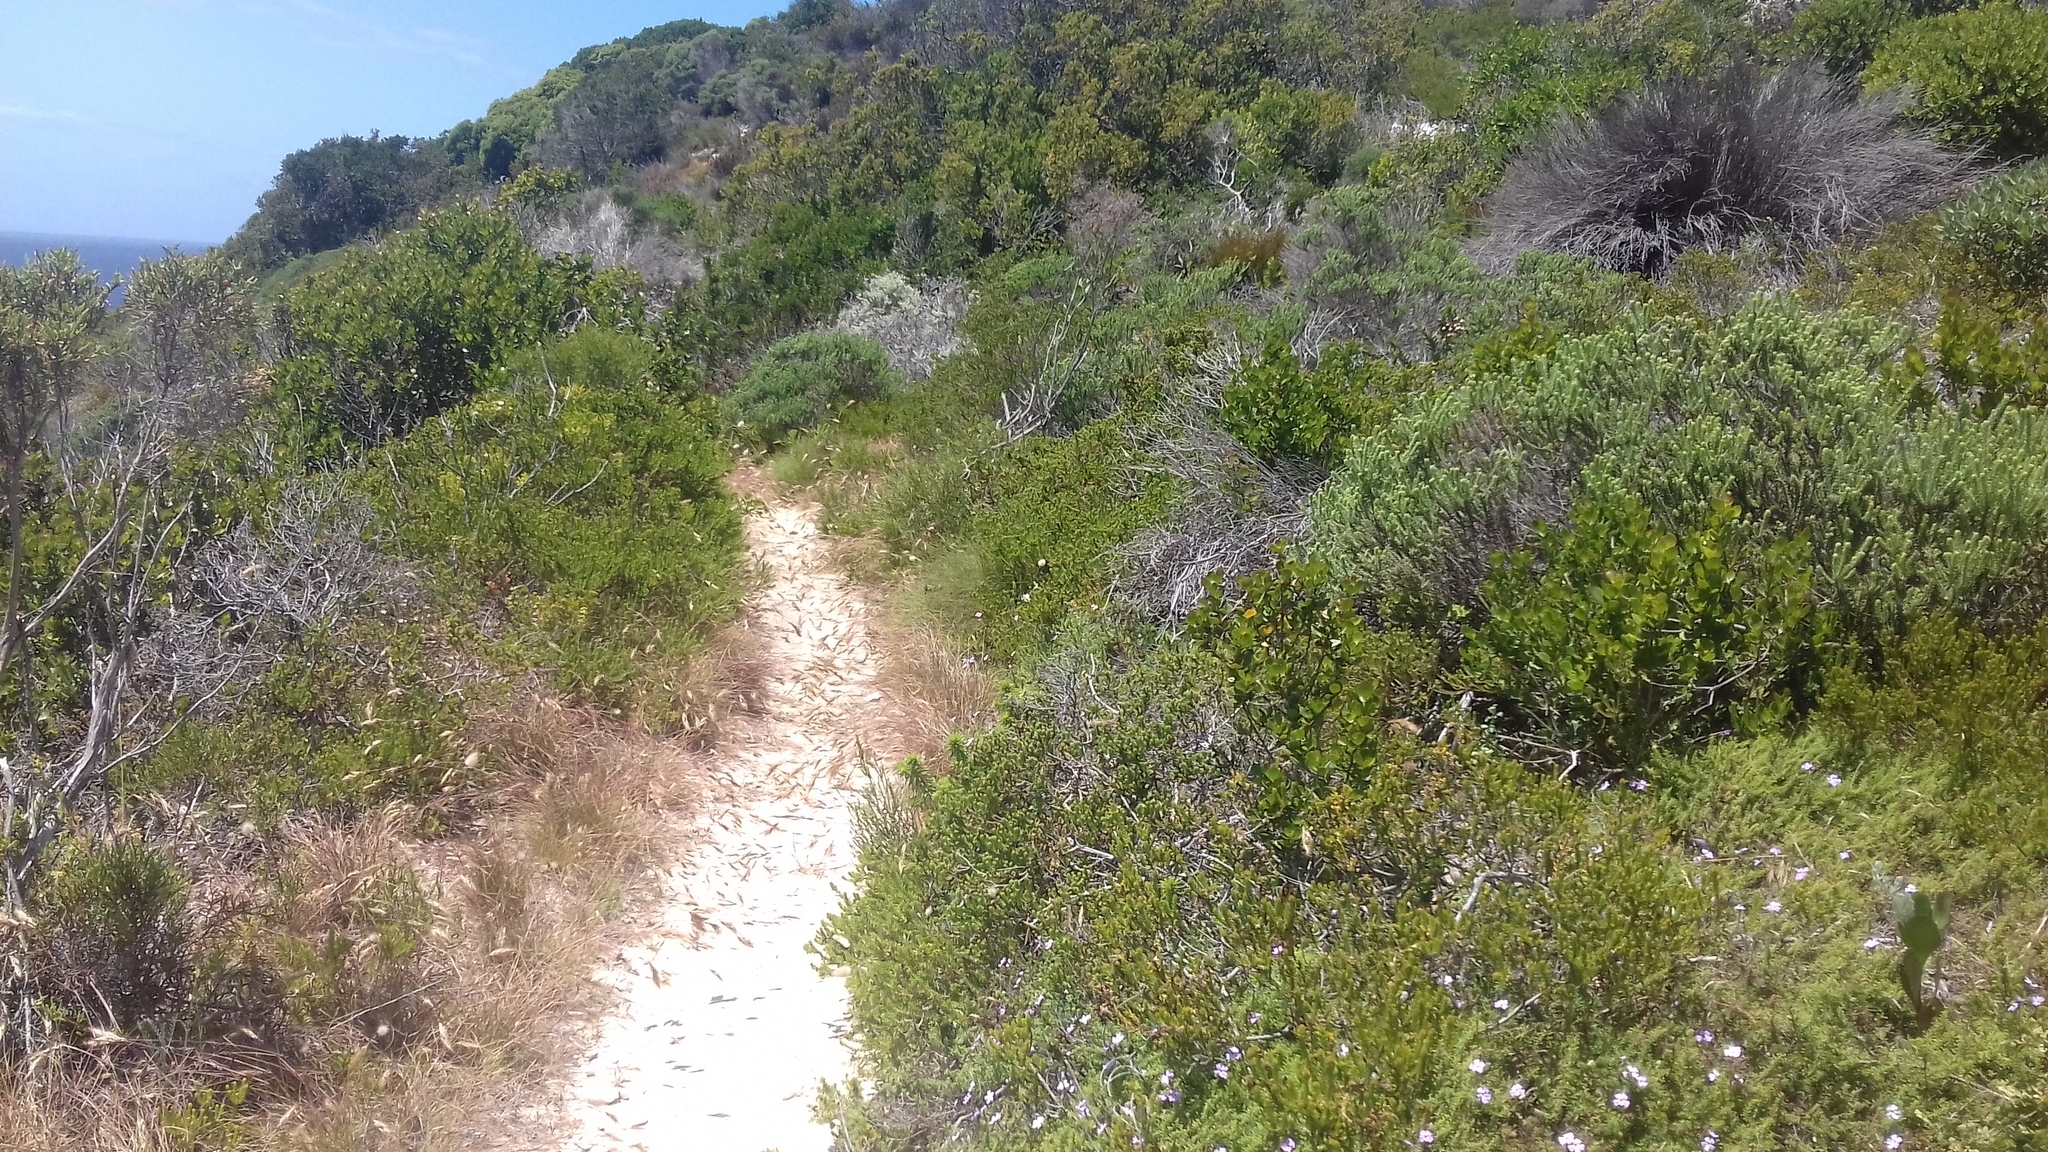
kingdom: Plantae
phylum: Tracheophyta
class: Magnoliopsida
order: Lamiales
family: Scrophulariaceae
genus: Jamesbrittenia
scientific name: Jamesbrittenia stellata
